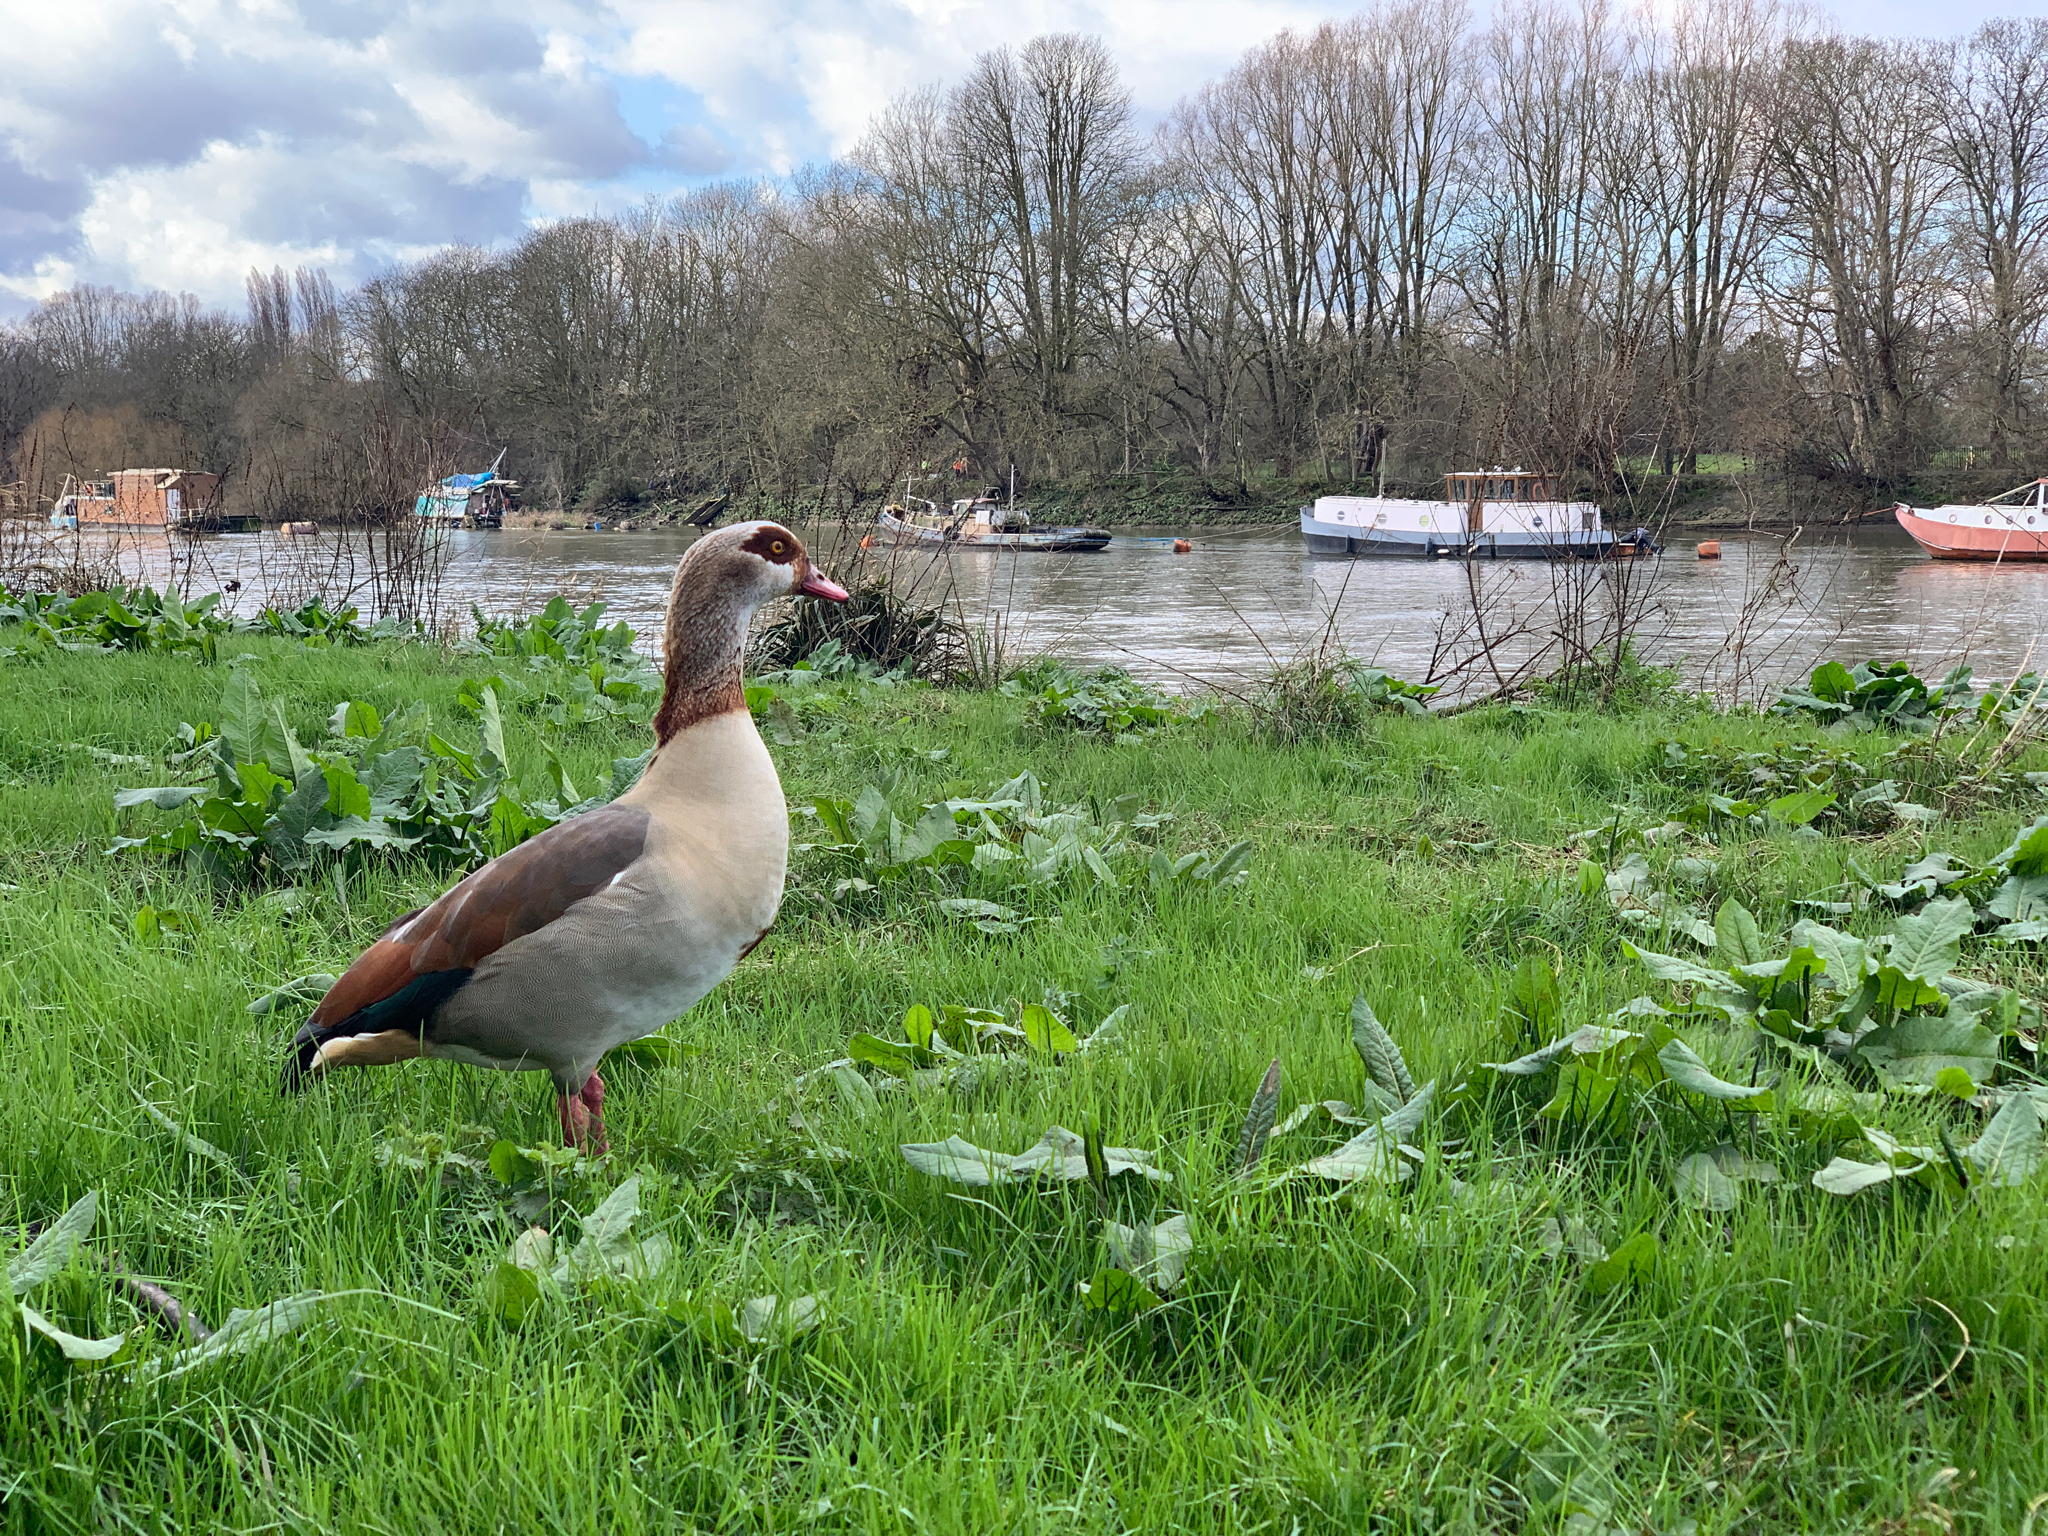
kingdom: Animalia
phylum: Chordata
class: Aves
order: Anseriformes
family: Anatidae
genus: Alopochen
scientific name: Alopochen aegyptiaca
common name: Egyptian goose
